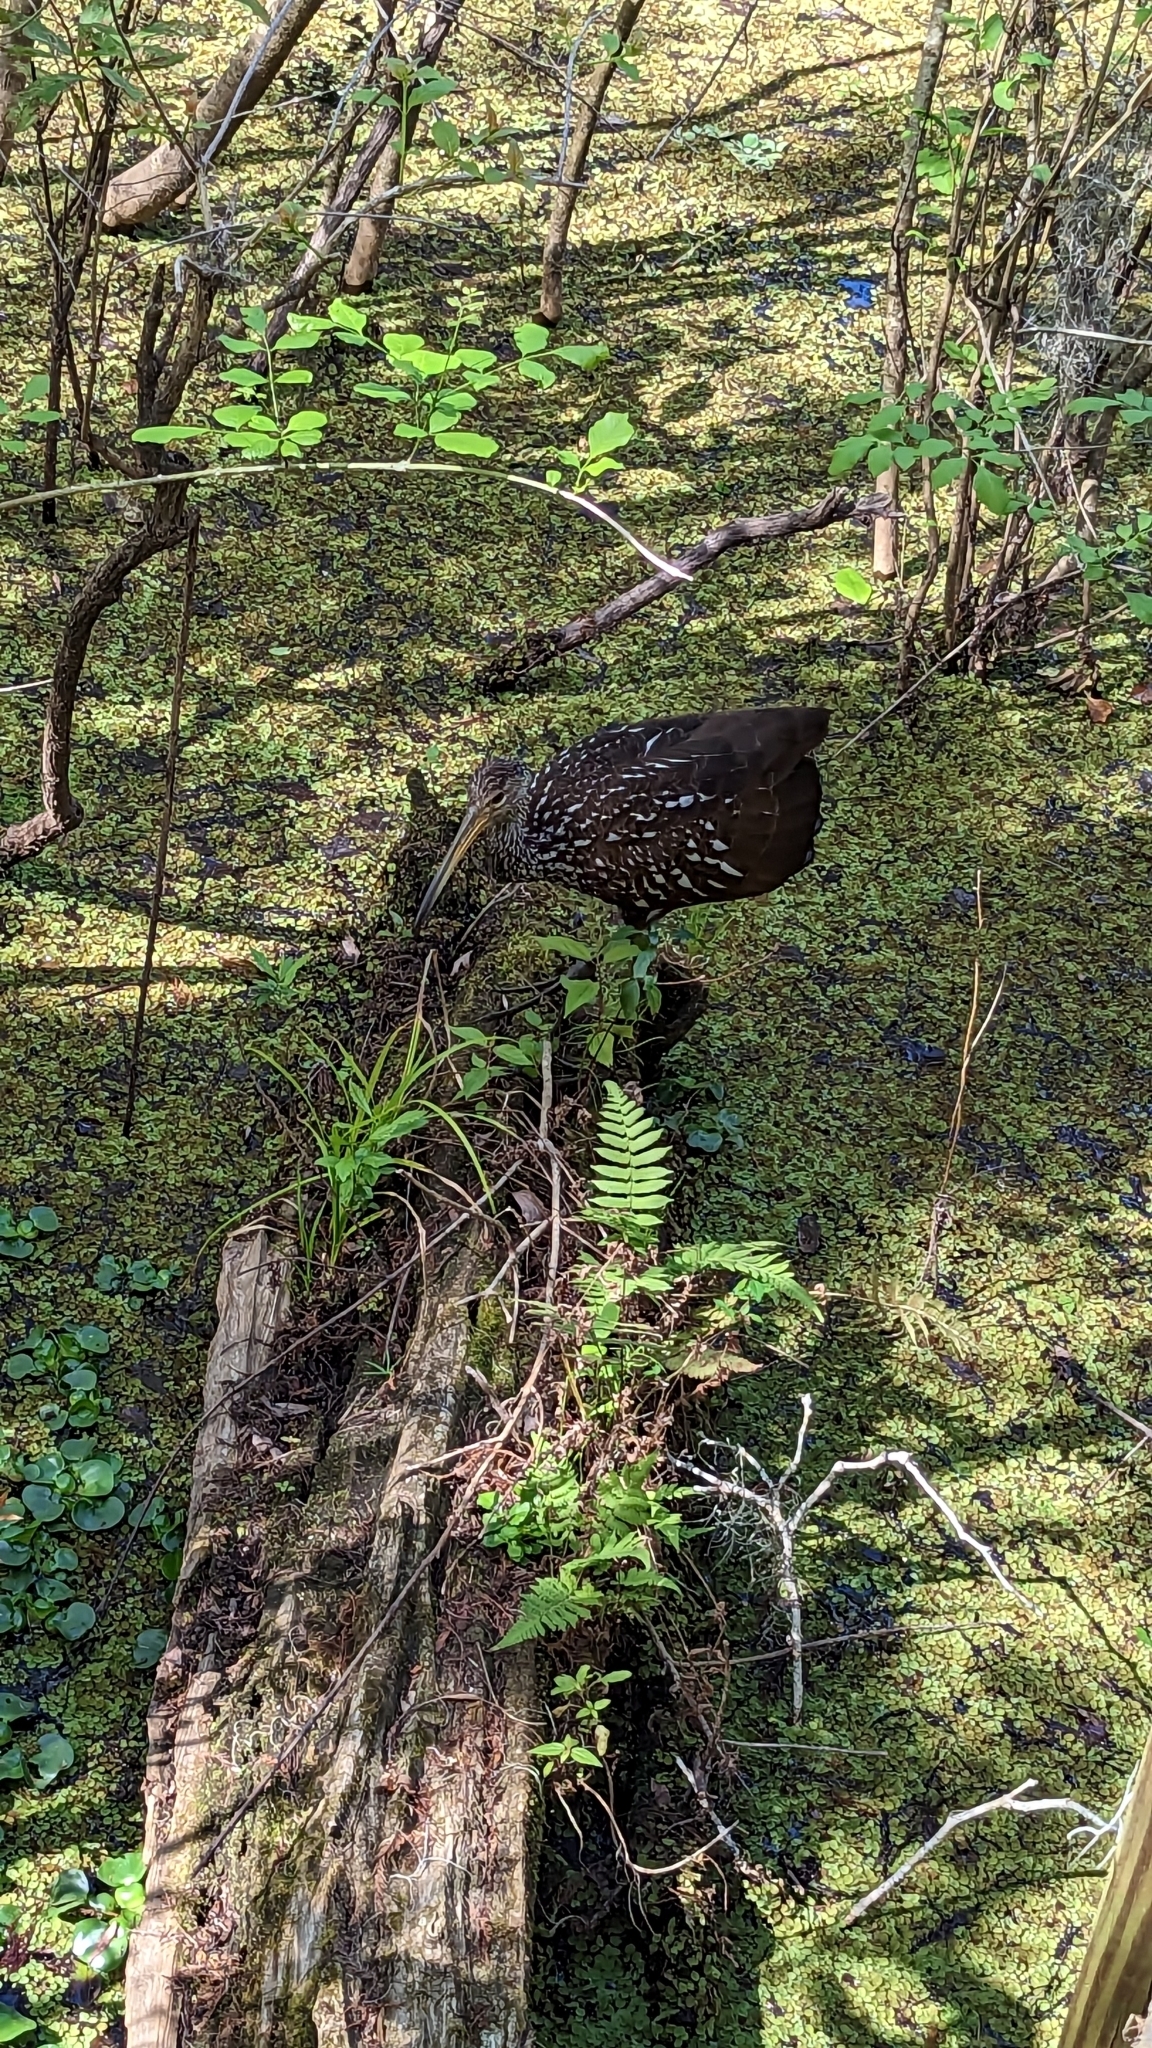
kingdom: Animalia
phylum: Chordata
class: Aves
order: Gruiformes
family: Aramidae
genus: Aramus
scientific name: Aramus guarauna
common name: Limpkin
